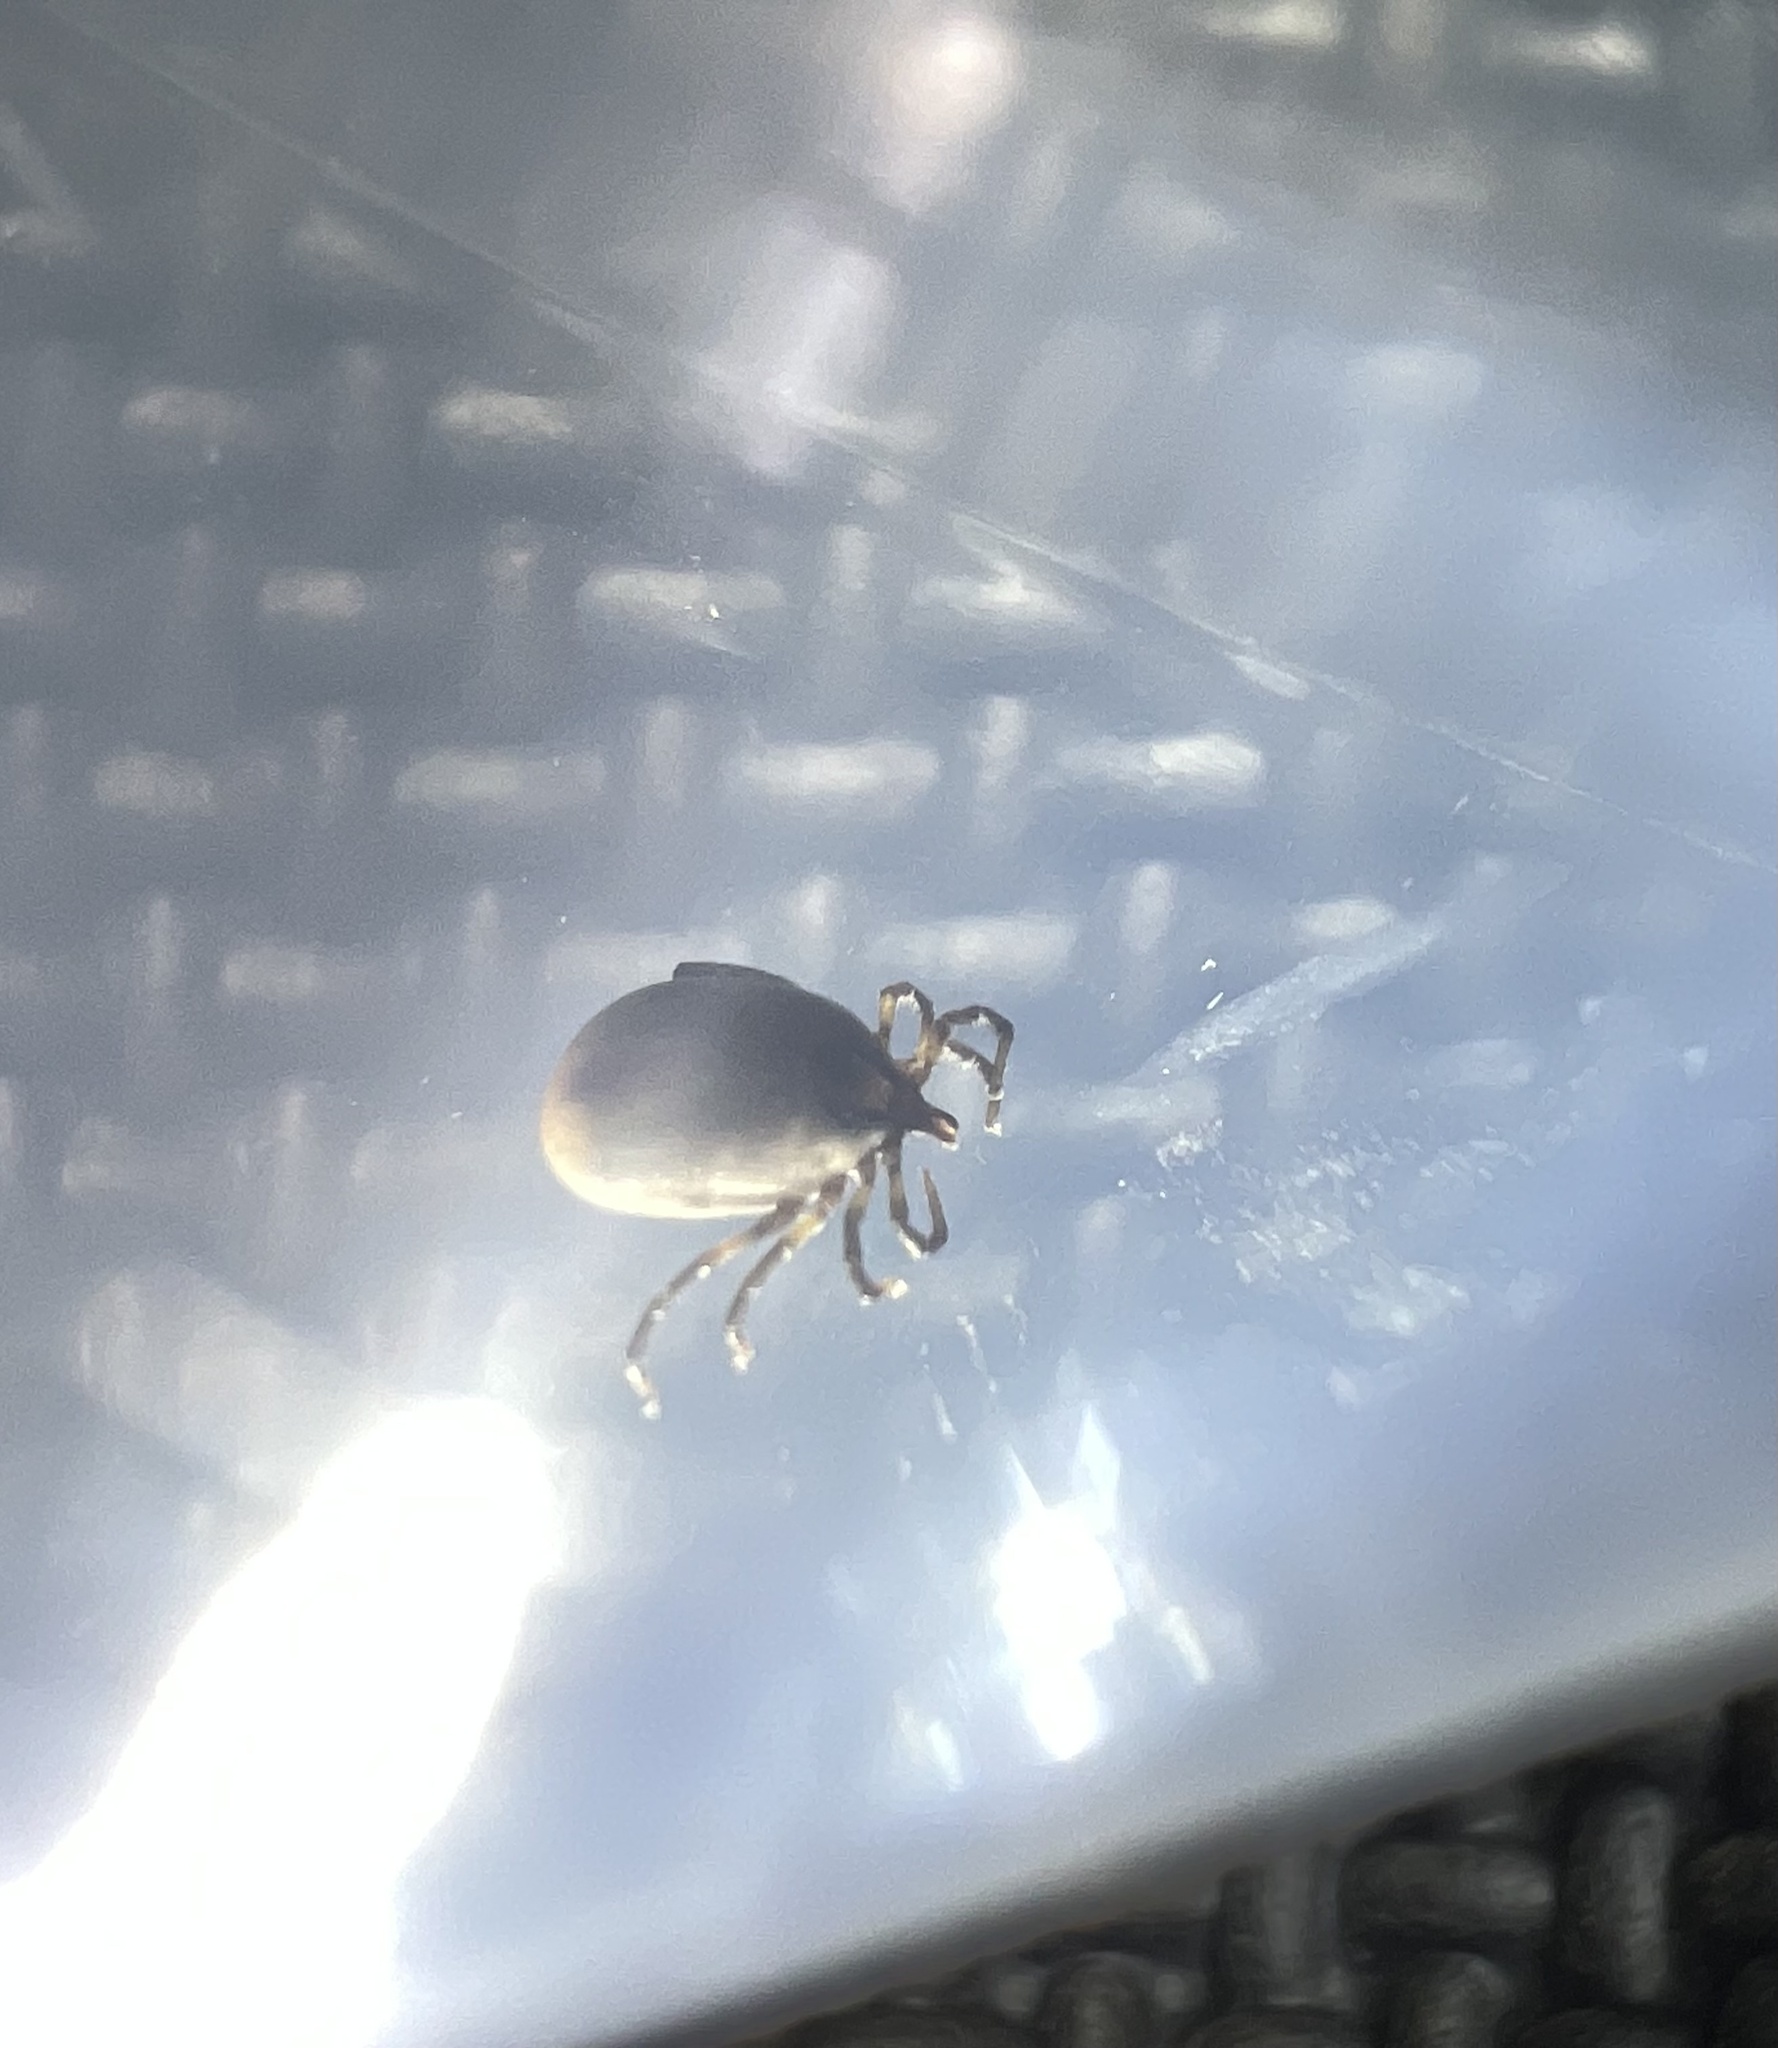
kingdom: Animalia
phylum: Arthropoda
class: Arachnida
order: Ixodida
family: Ixodidae
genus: Ixodes
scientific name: Ixodes
